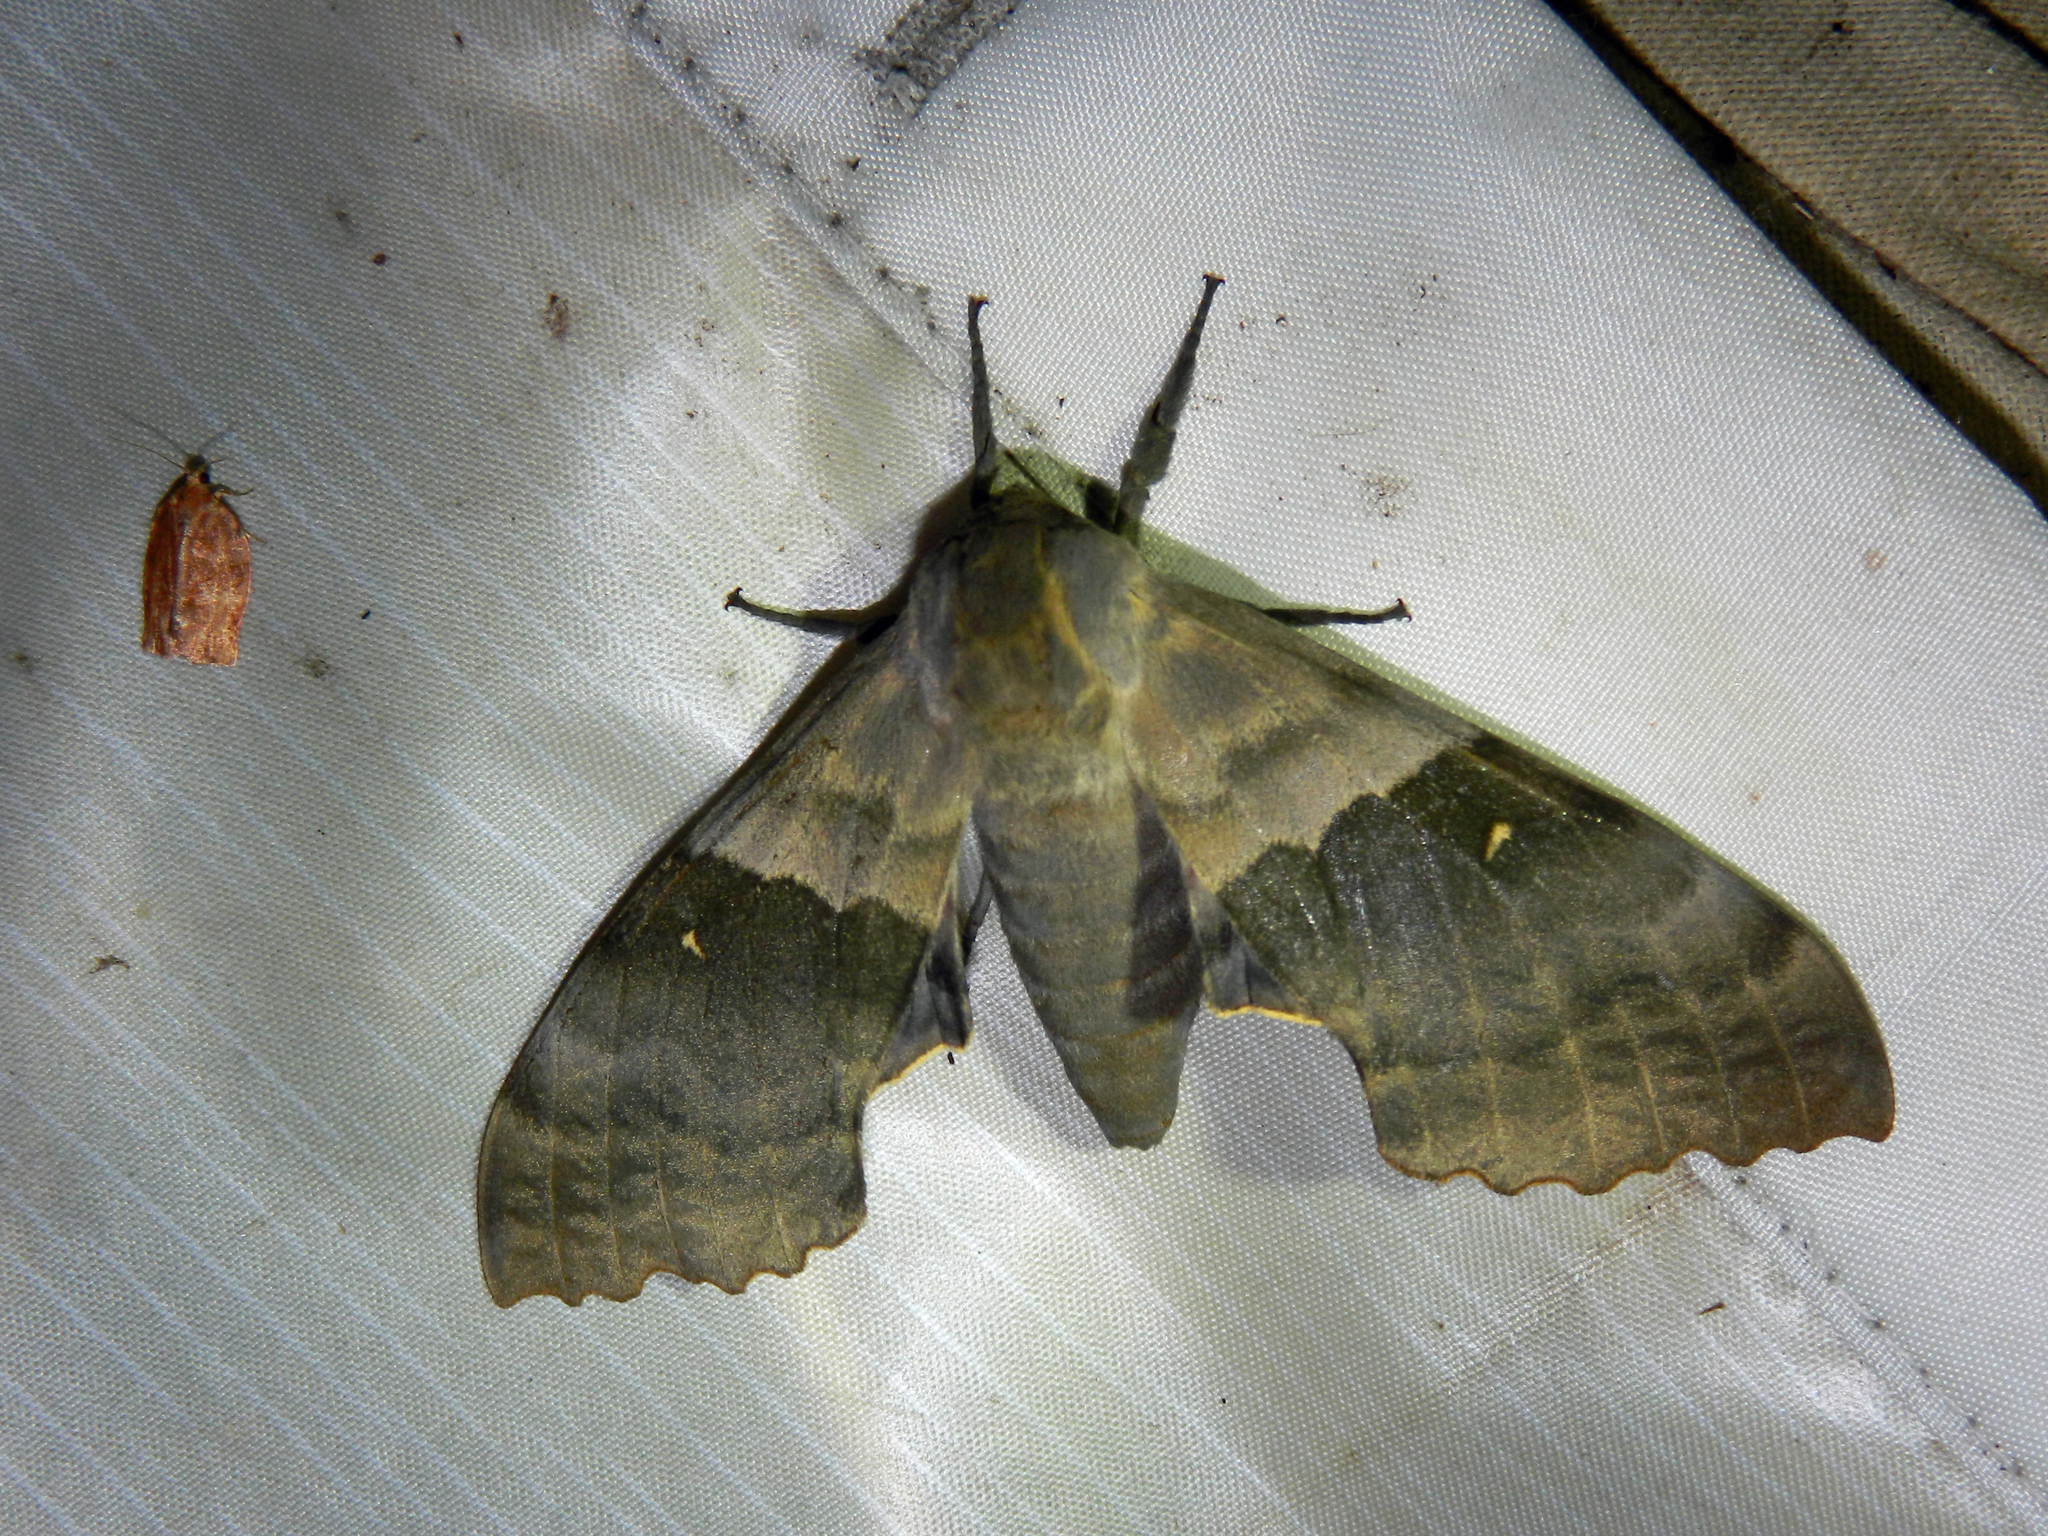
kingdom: Animalia
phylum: Arthropoda
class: Insecta
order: Lepidoptera
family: Sphingidae
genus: Pachysphinx
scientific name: Pachysphinx modesta
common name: Big poplar sphinx
